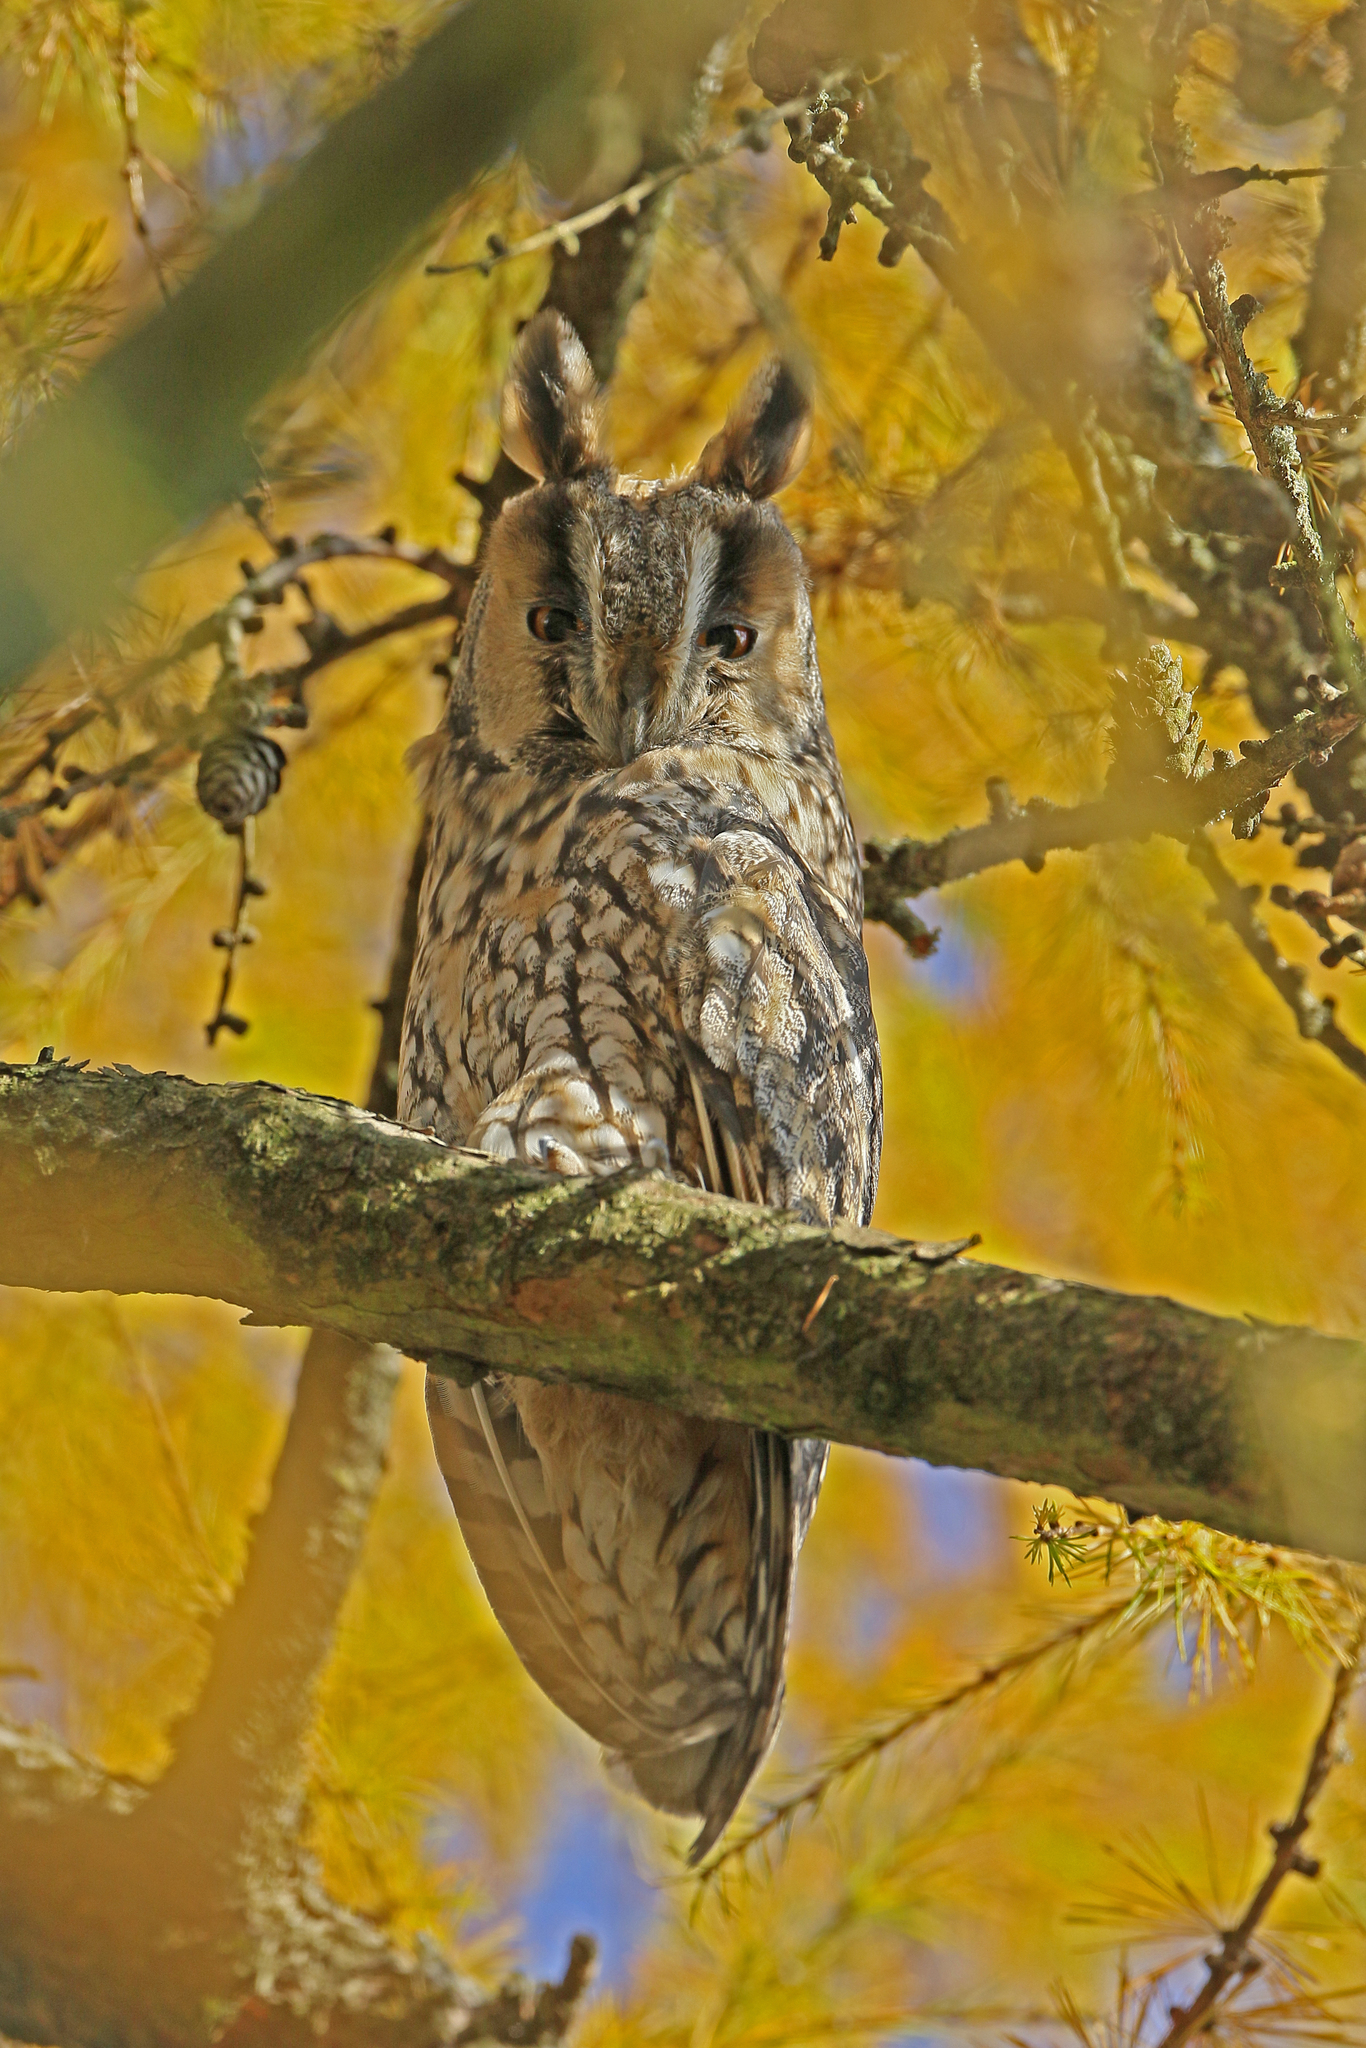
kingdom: Animalia
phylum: Chordata
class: Aves
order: Strigiformes
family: Strigidae
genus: Asio
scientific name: Asio otus
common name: Long-eared owl
